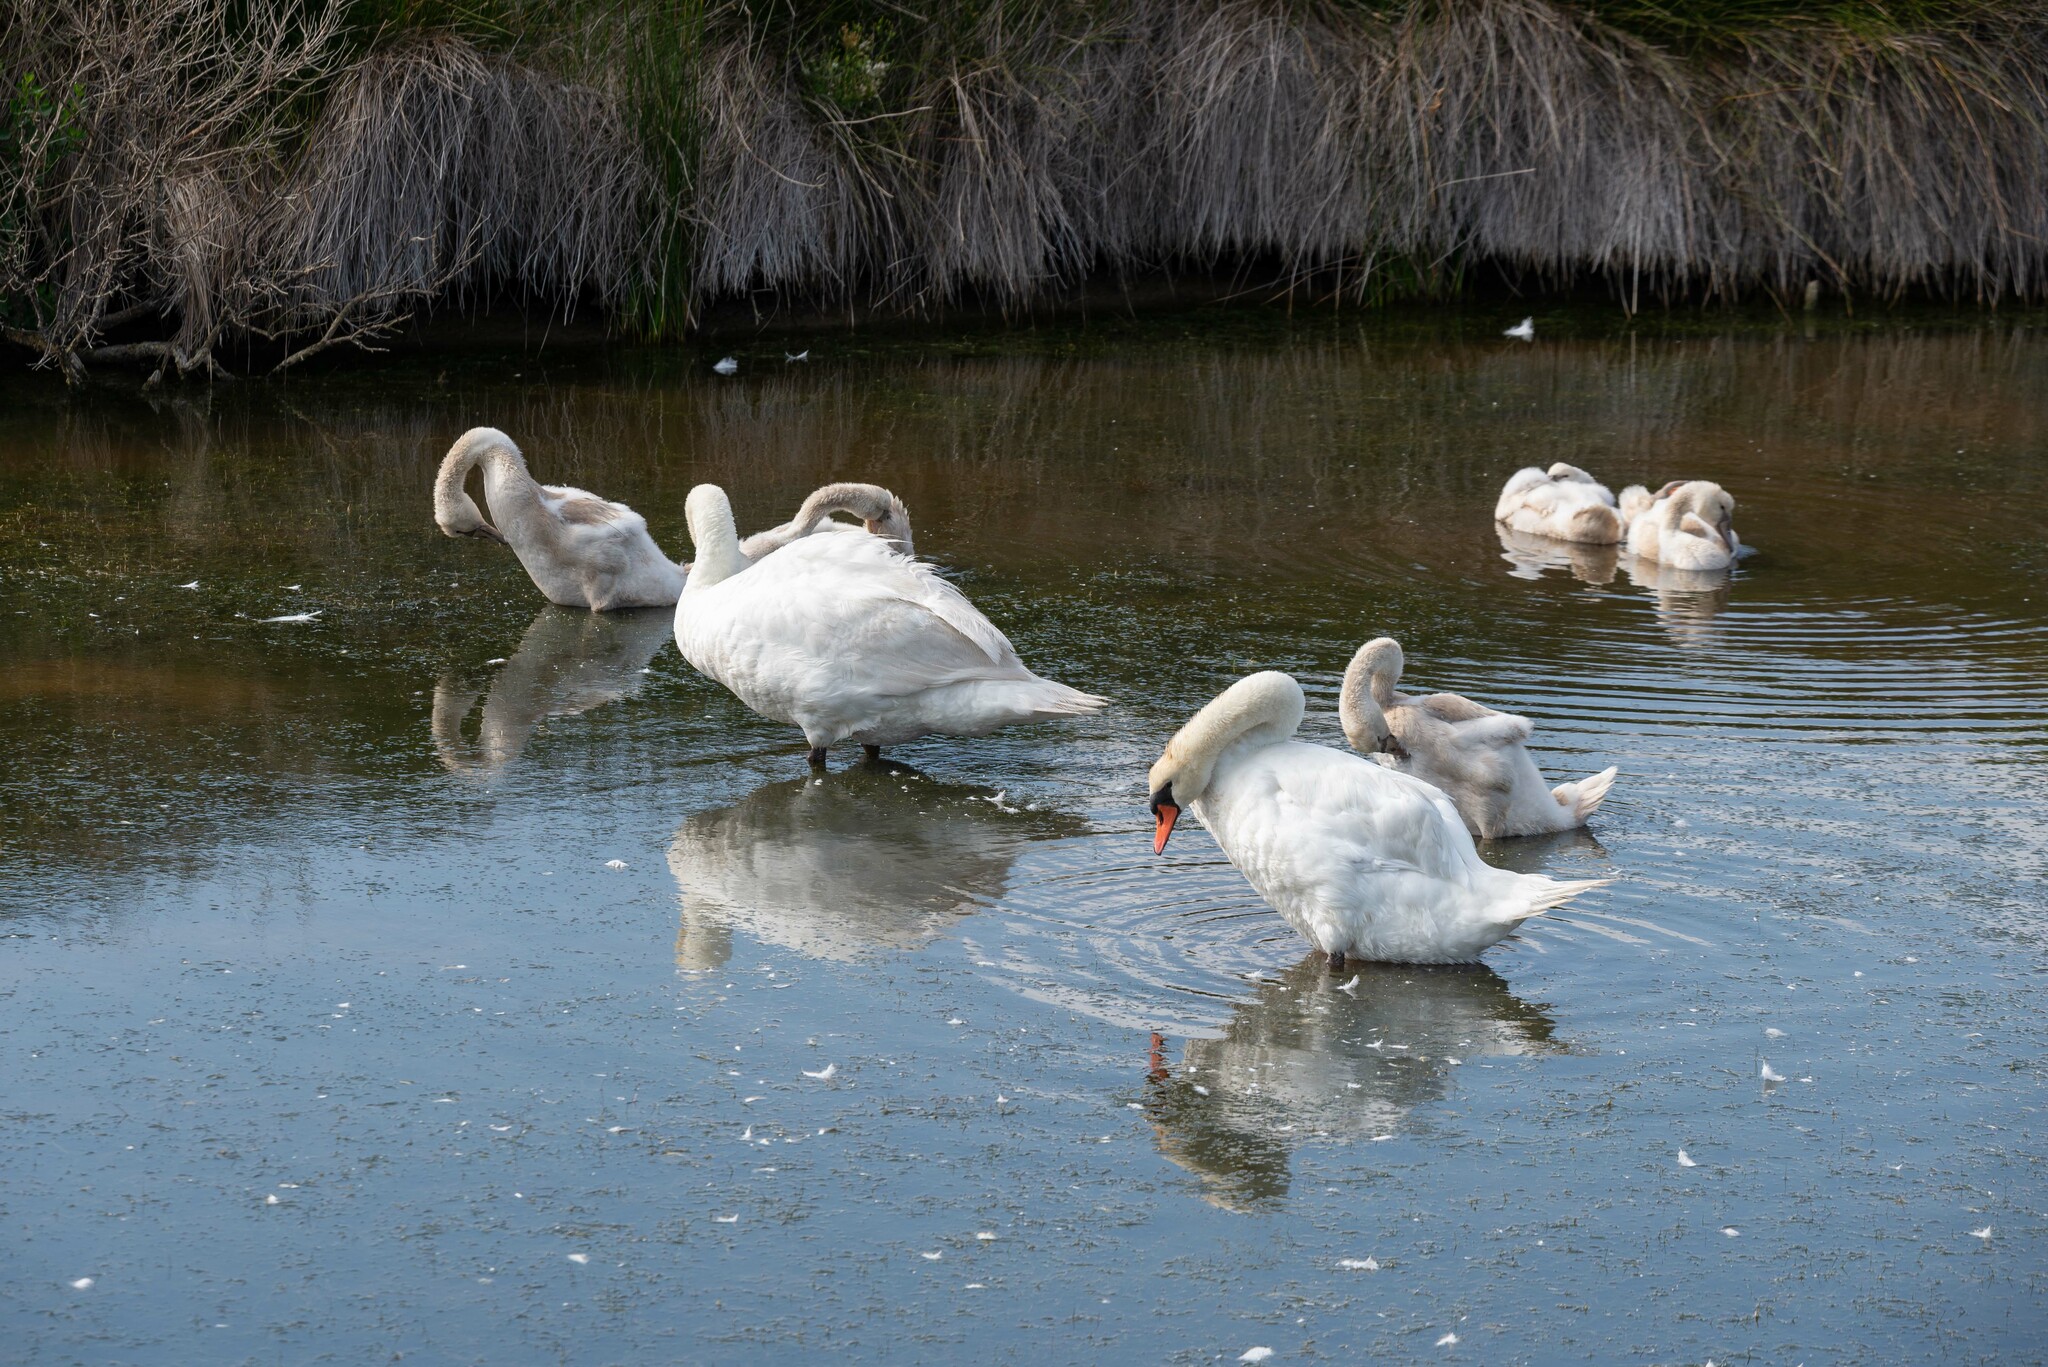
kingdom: Animalia
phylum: Chordata
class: Aves
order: Anseriformes
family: Anatidae
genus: Cygnus
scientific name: Cygnus olor
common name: Mute swan
